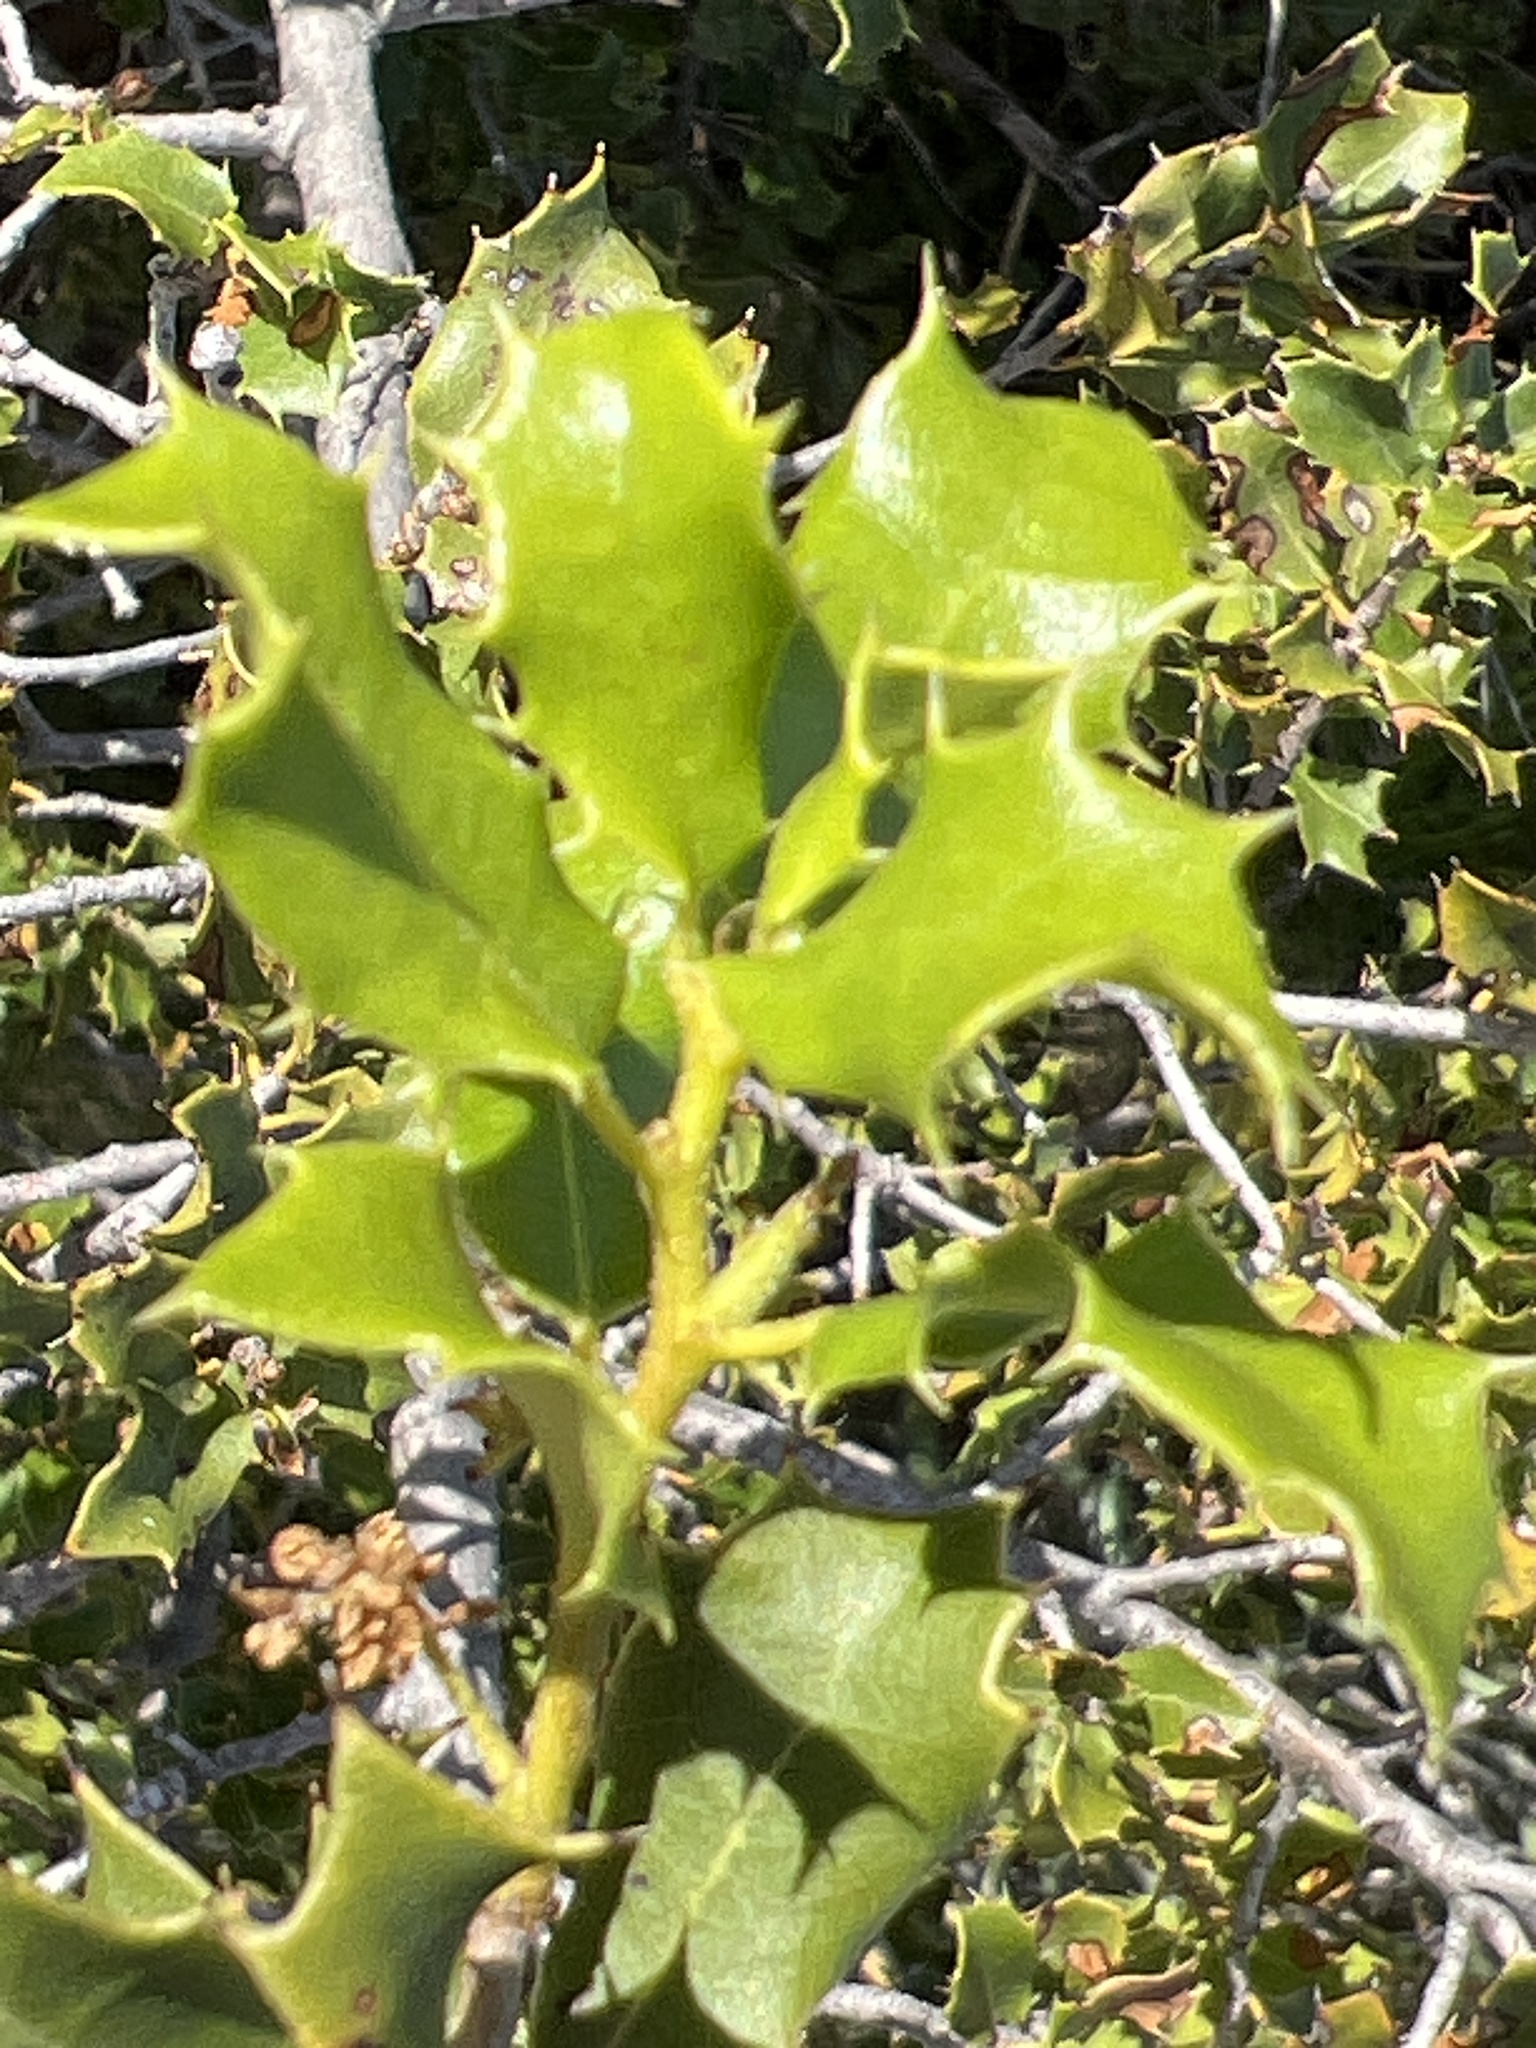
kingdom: Plantae
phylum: Tracheophyta
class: Magnoliopsida
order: Fagales
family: Fagaceae
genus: Quercus
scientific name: Quercus coccifera
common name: Kermes oak
